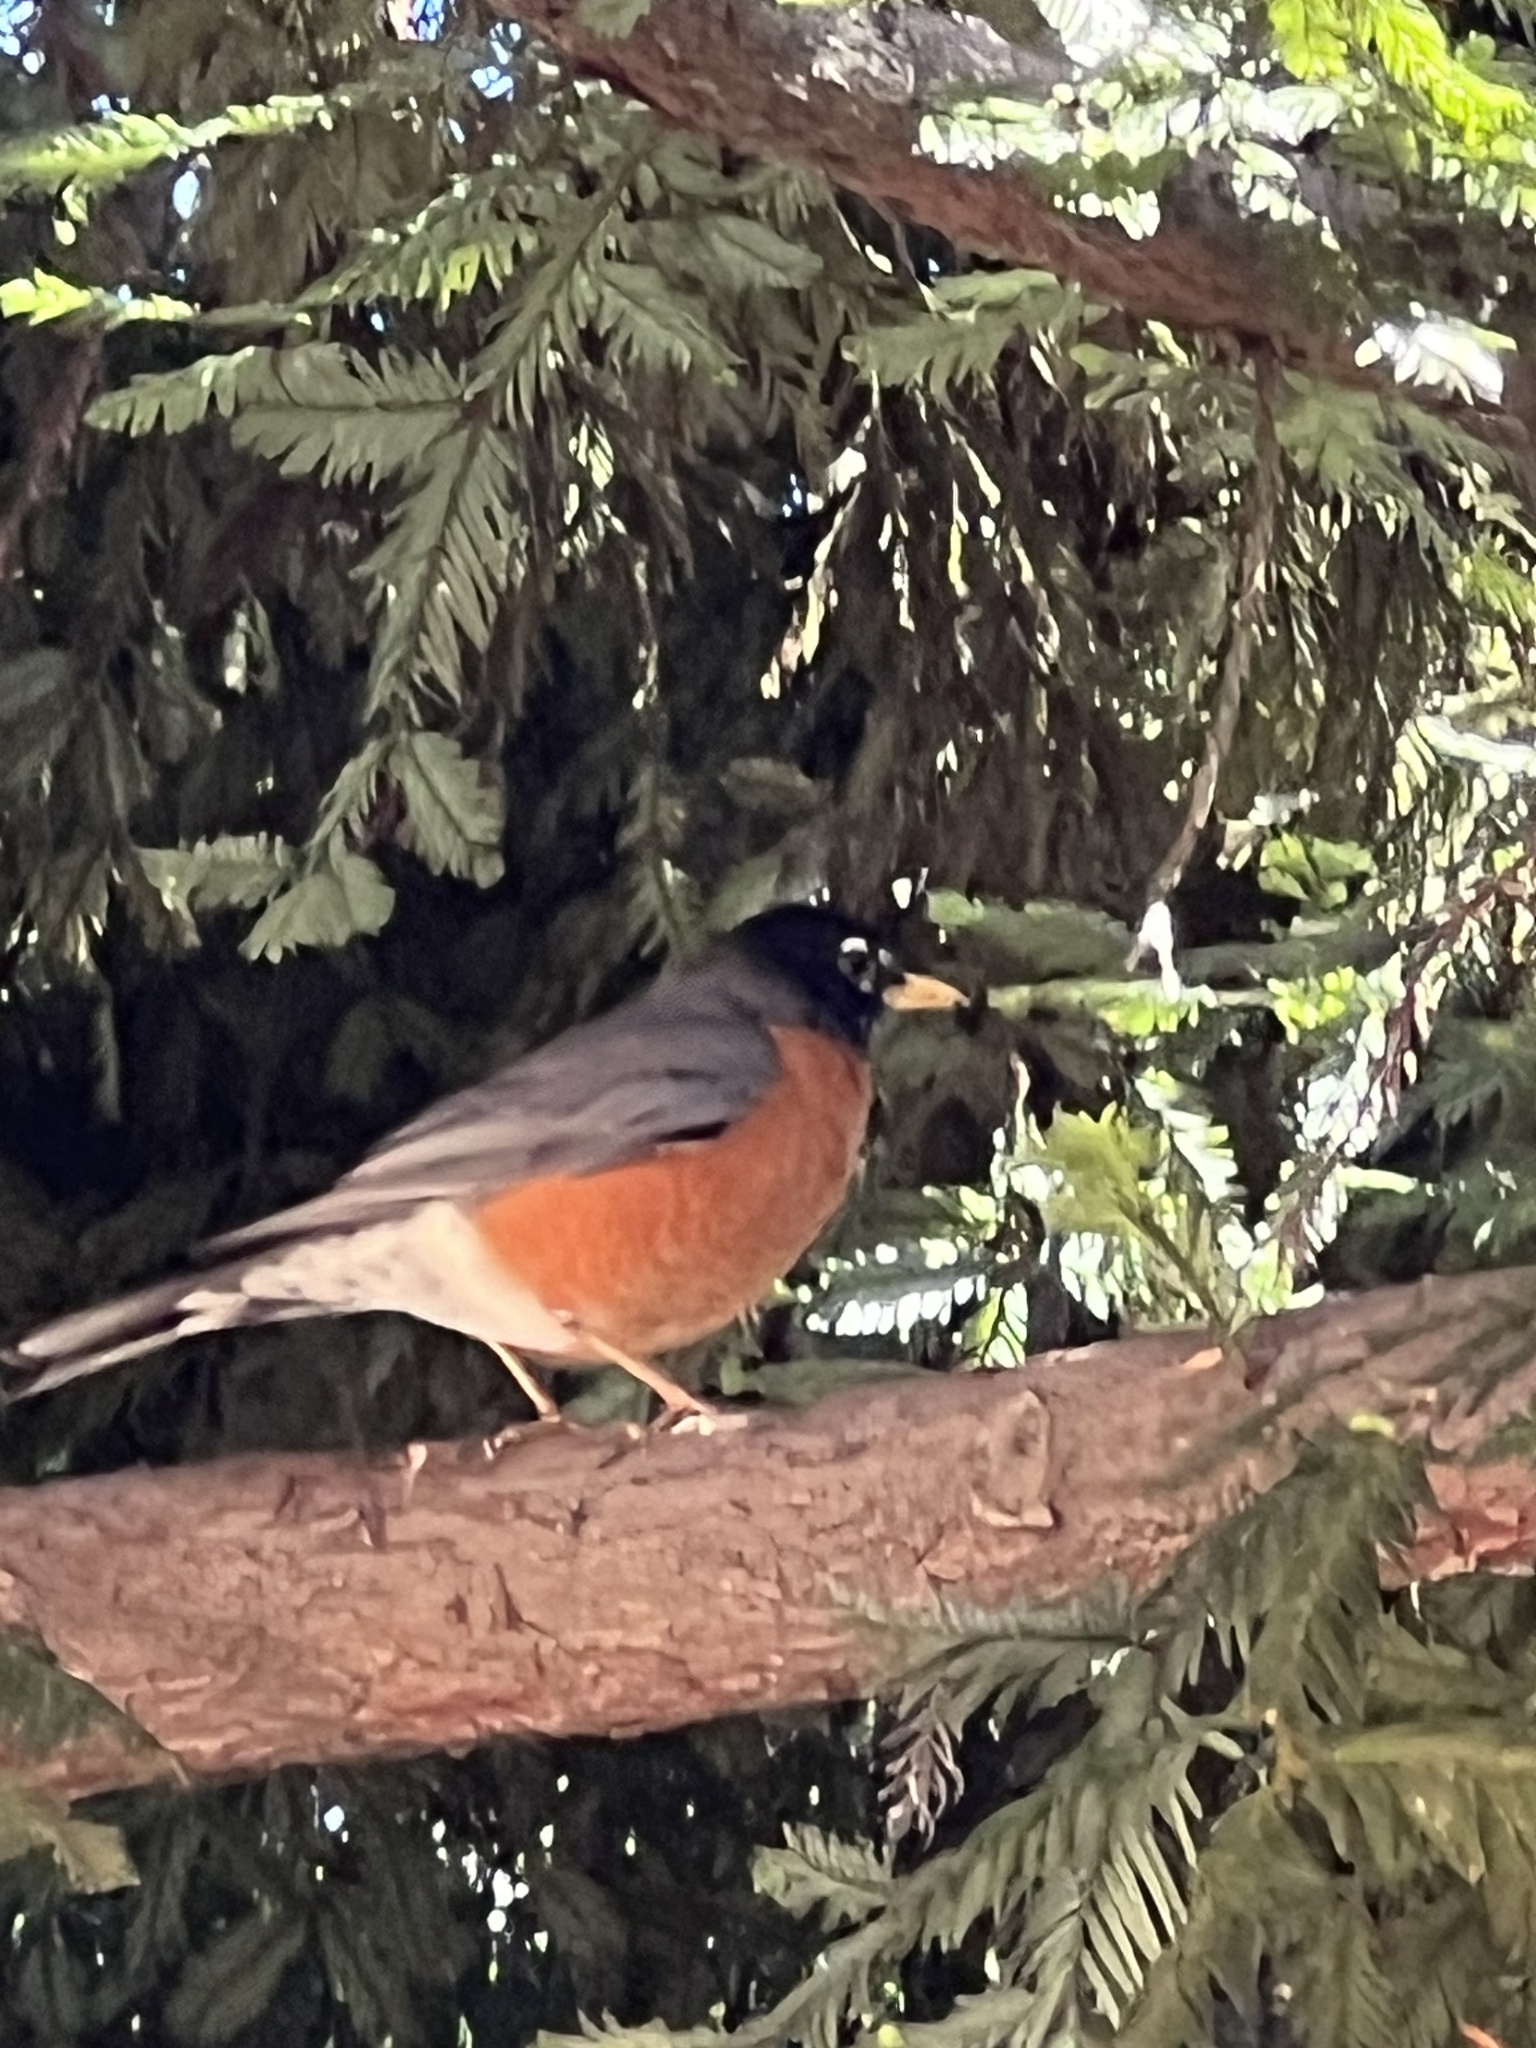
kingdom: Animalia
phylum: Chordata
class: Aves
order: Passeriformes
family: Turdidae
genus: Turdus
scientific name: Turdus migratorius
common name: American robin
